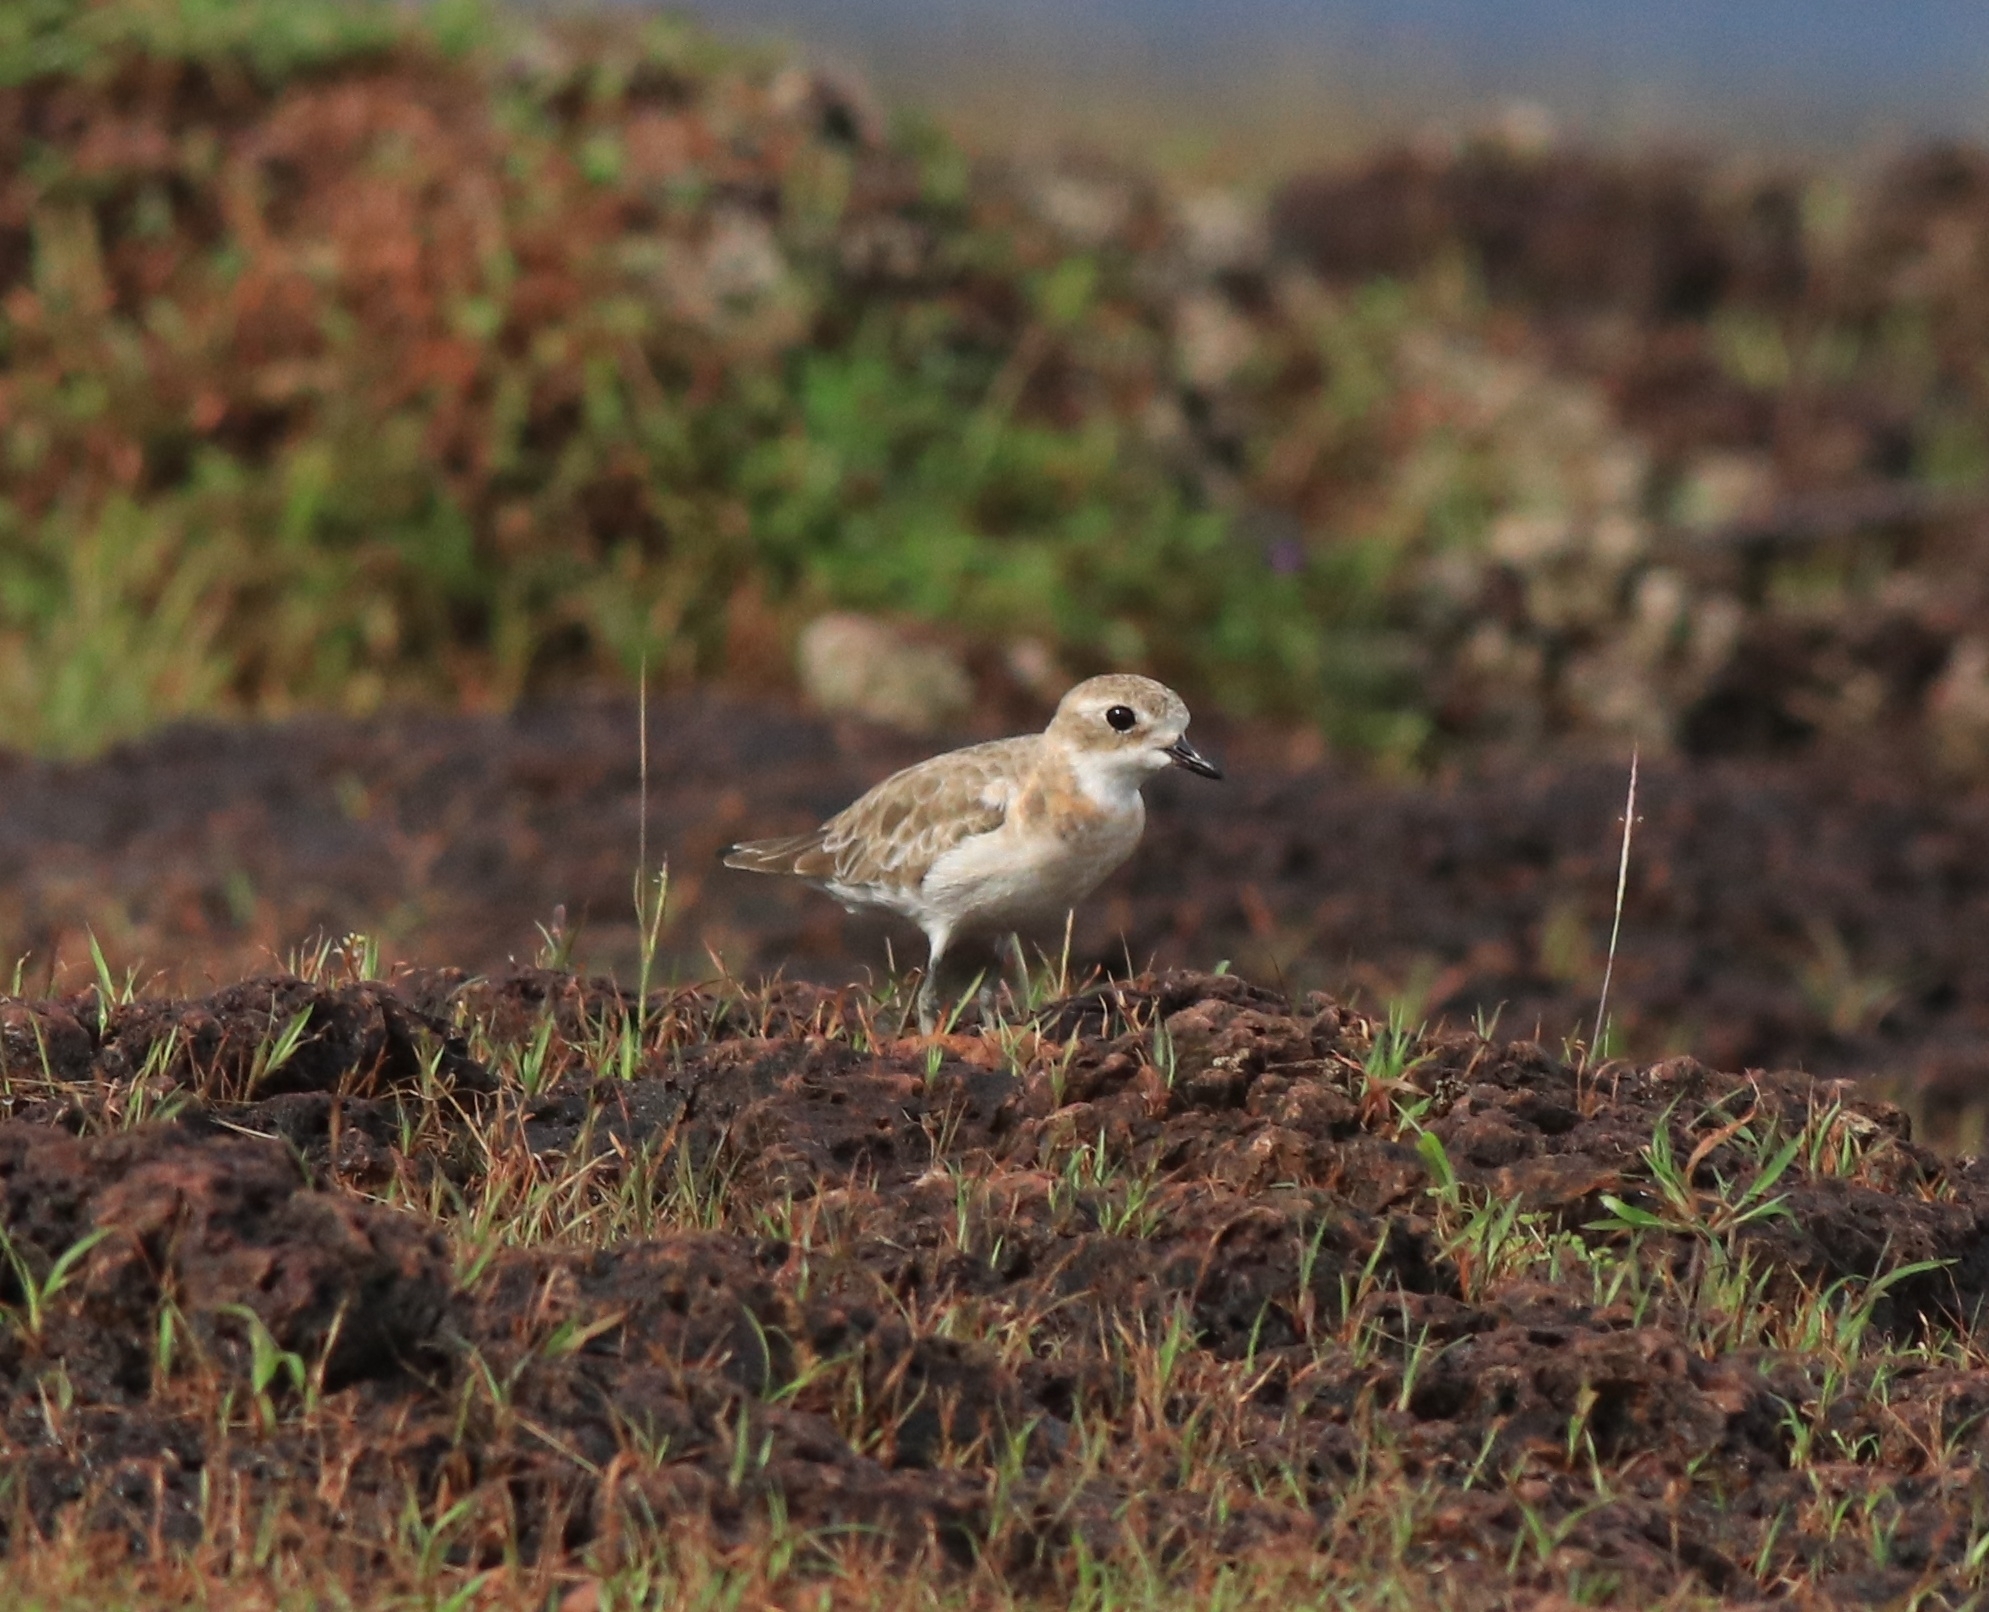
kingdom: Animalia
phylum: Chordata
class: Aves
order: Charadriiformes
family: Charadriidae
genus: Anarhynchus
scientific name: Anarhynchus
